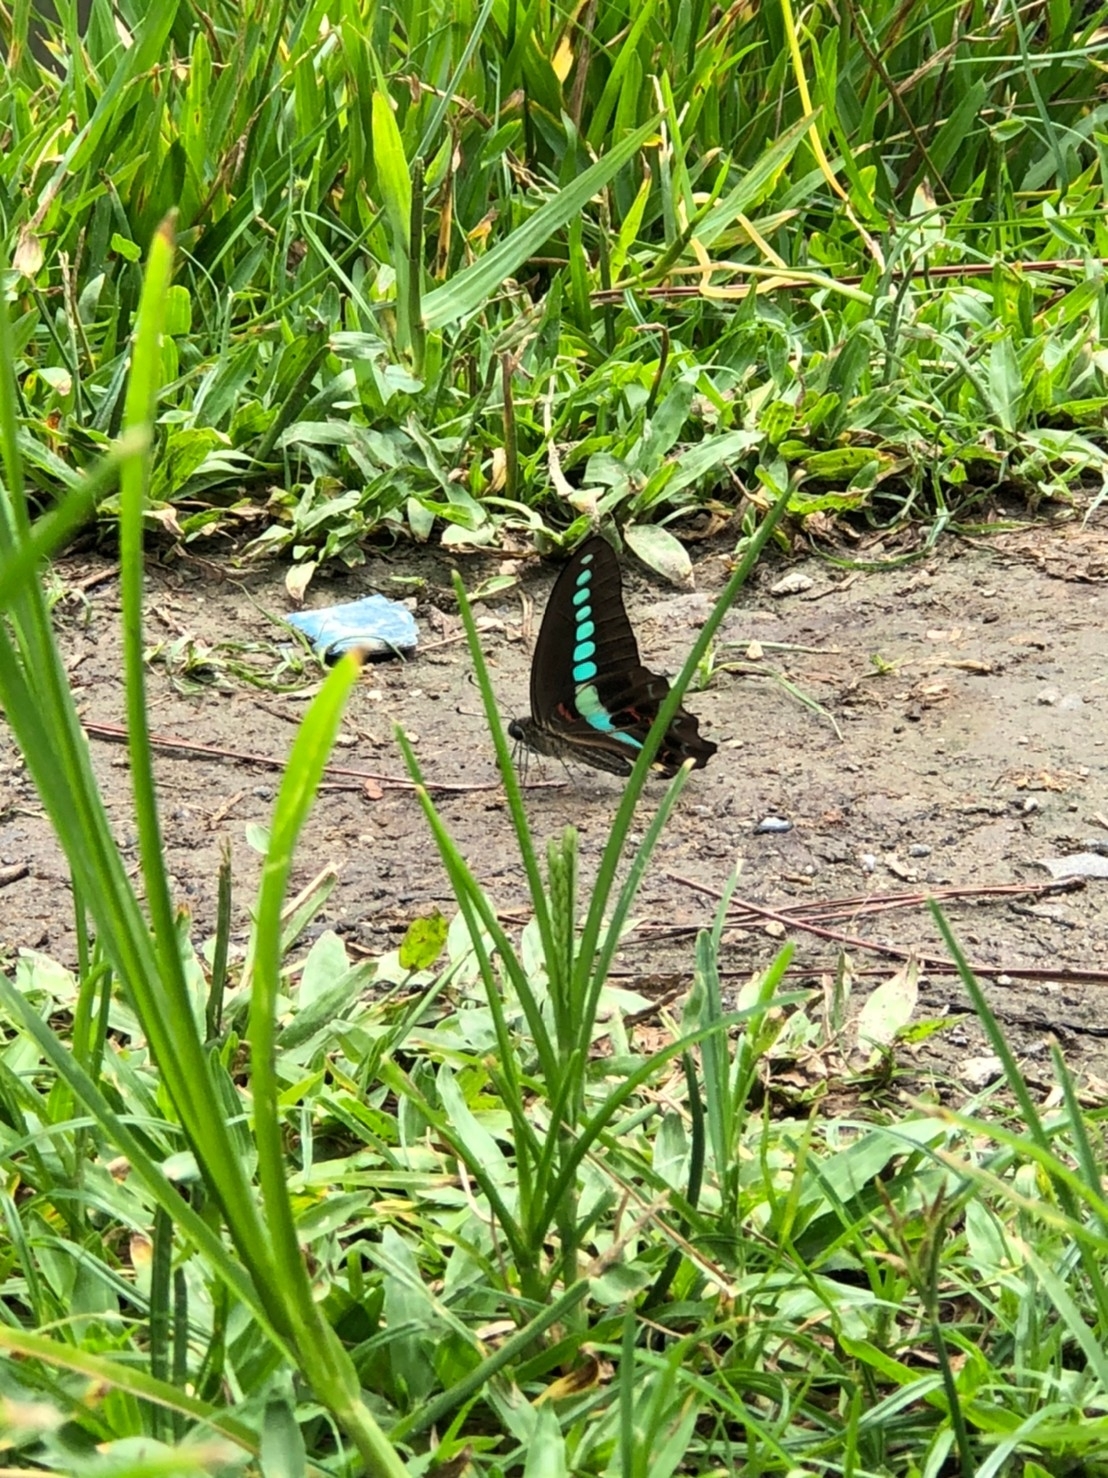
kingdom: Fungi
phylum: Ascomycota
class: Sordariomycetes
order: Microascales
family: Microascaceae
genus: Graphium
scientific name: Graphium sarpedon
